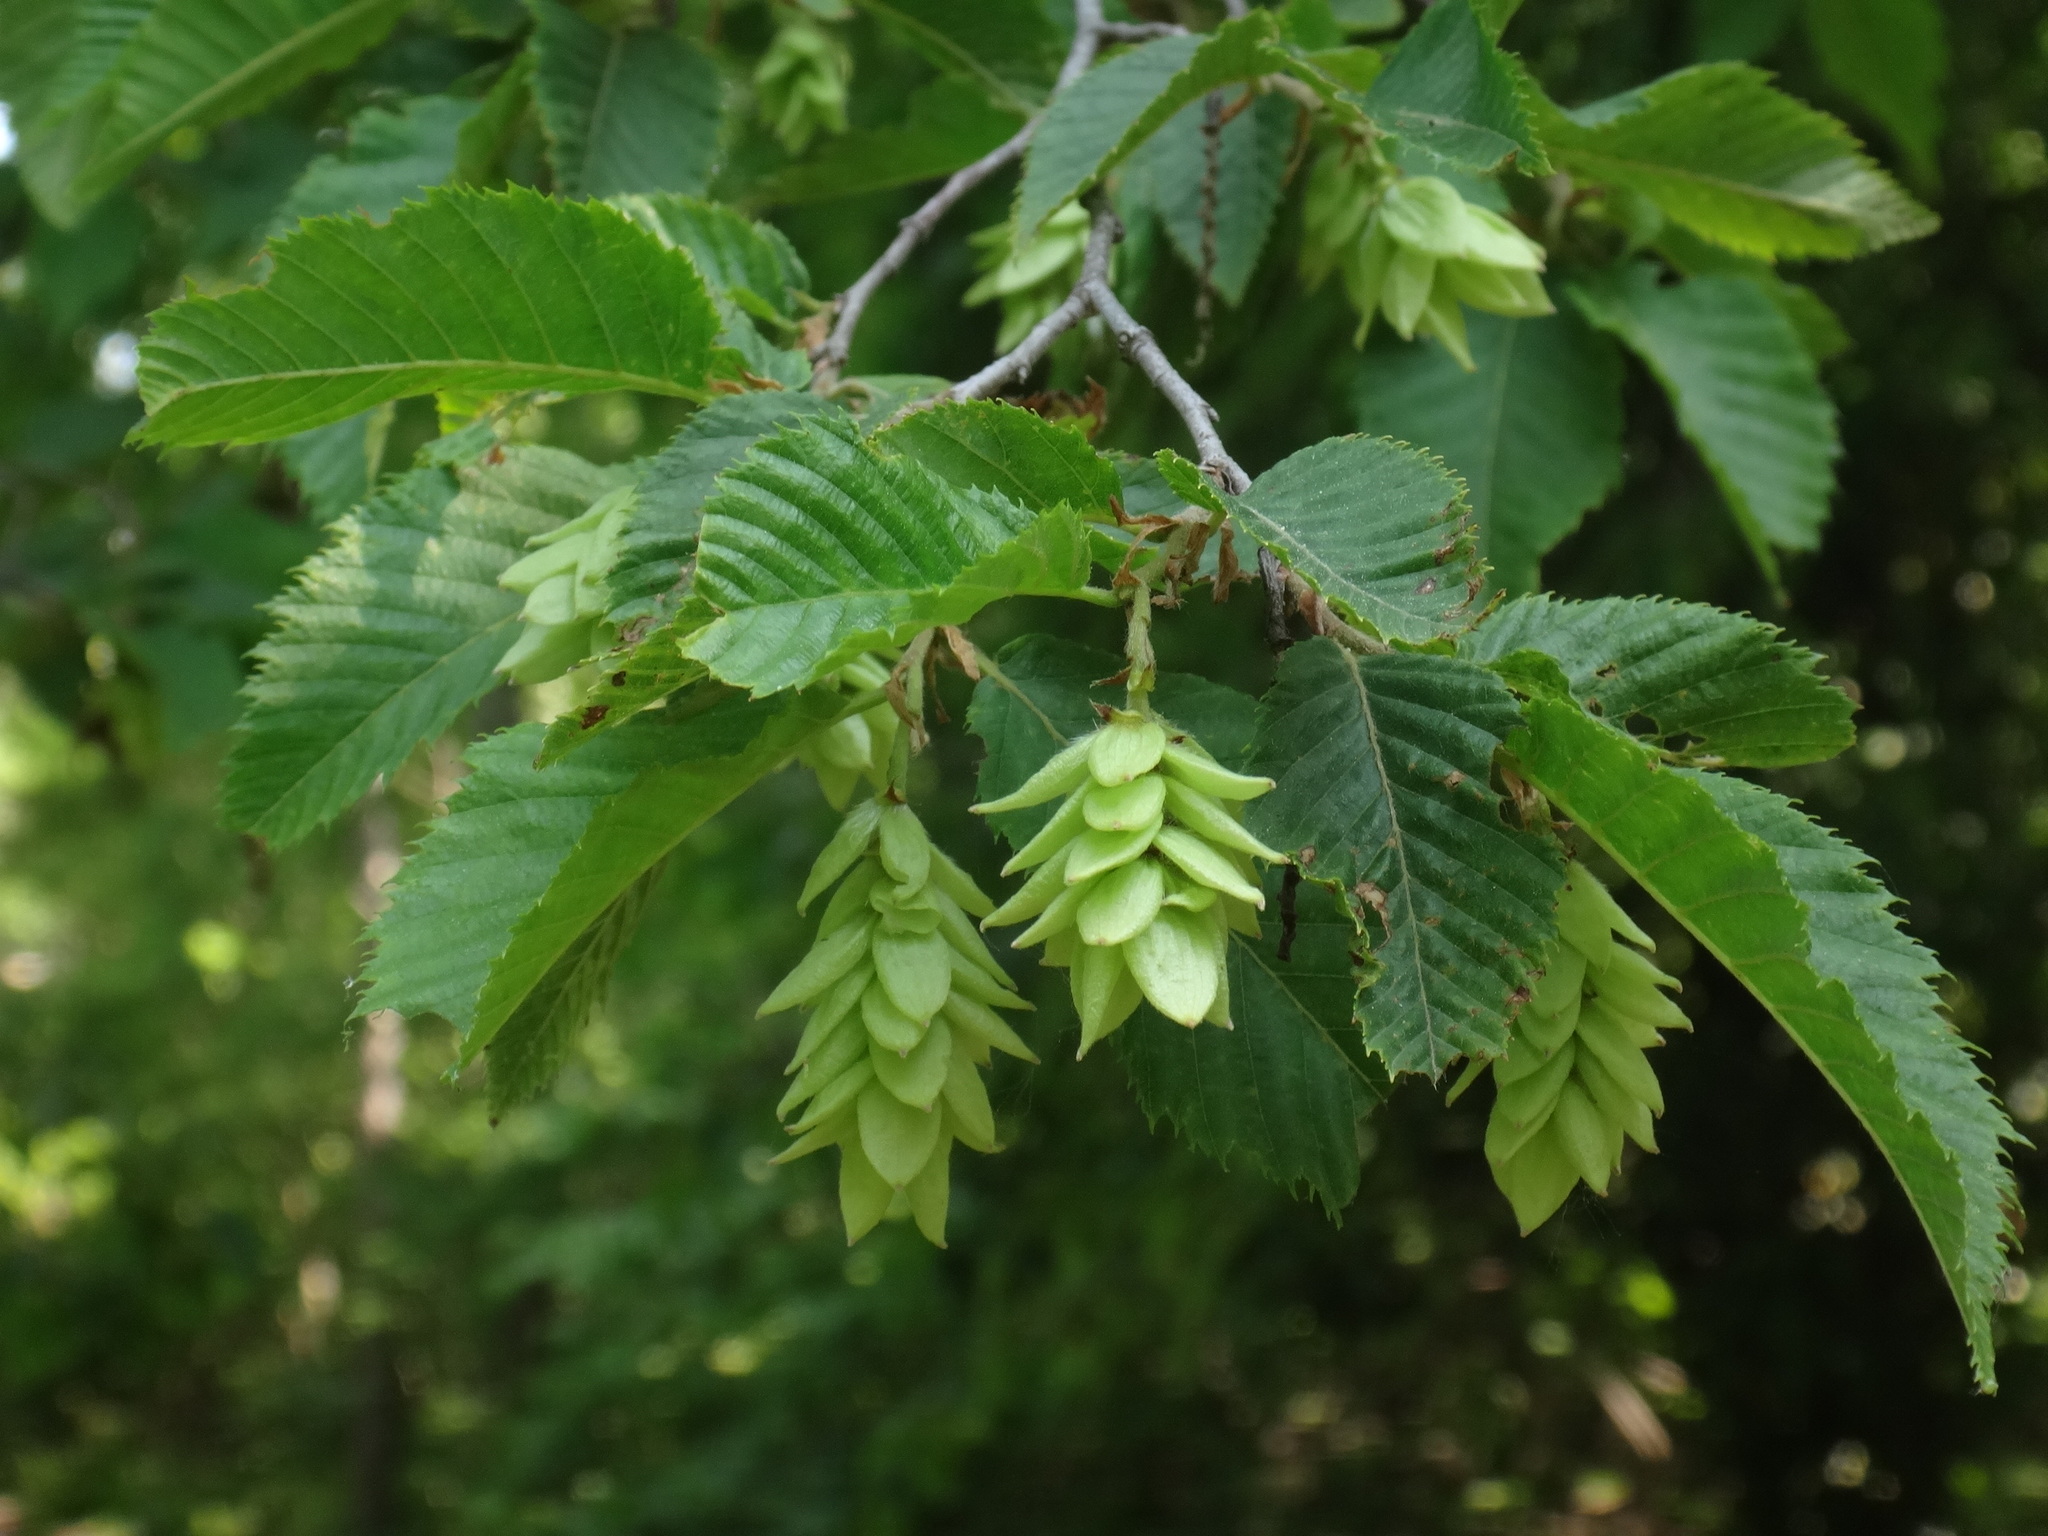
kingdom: Plantae
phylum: Tracheophyta
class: Magnoliopsida
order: Fagales
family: Betulaceae
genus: Ostrya
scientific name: Ostrya carpinifolia
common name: European hop-hornbeam
